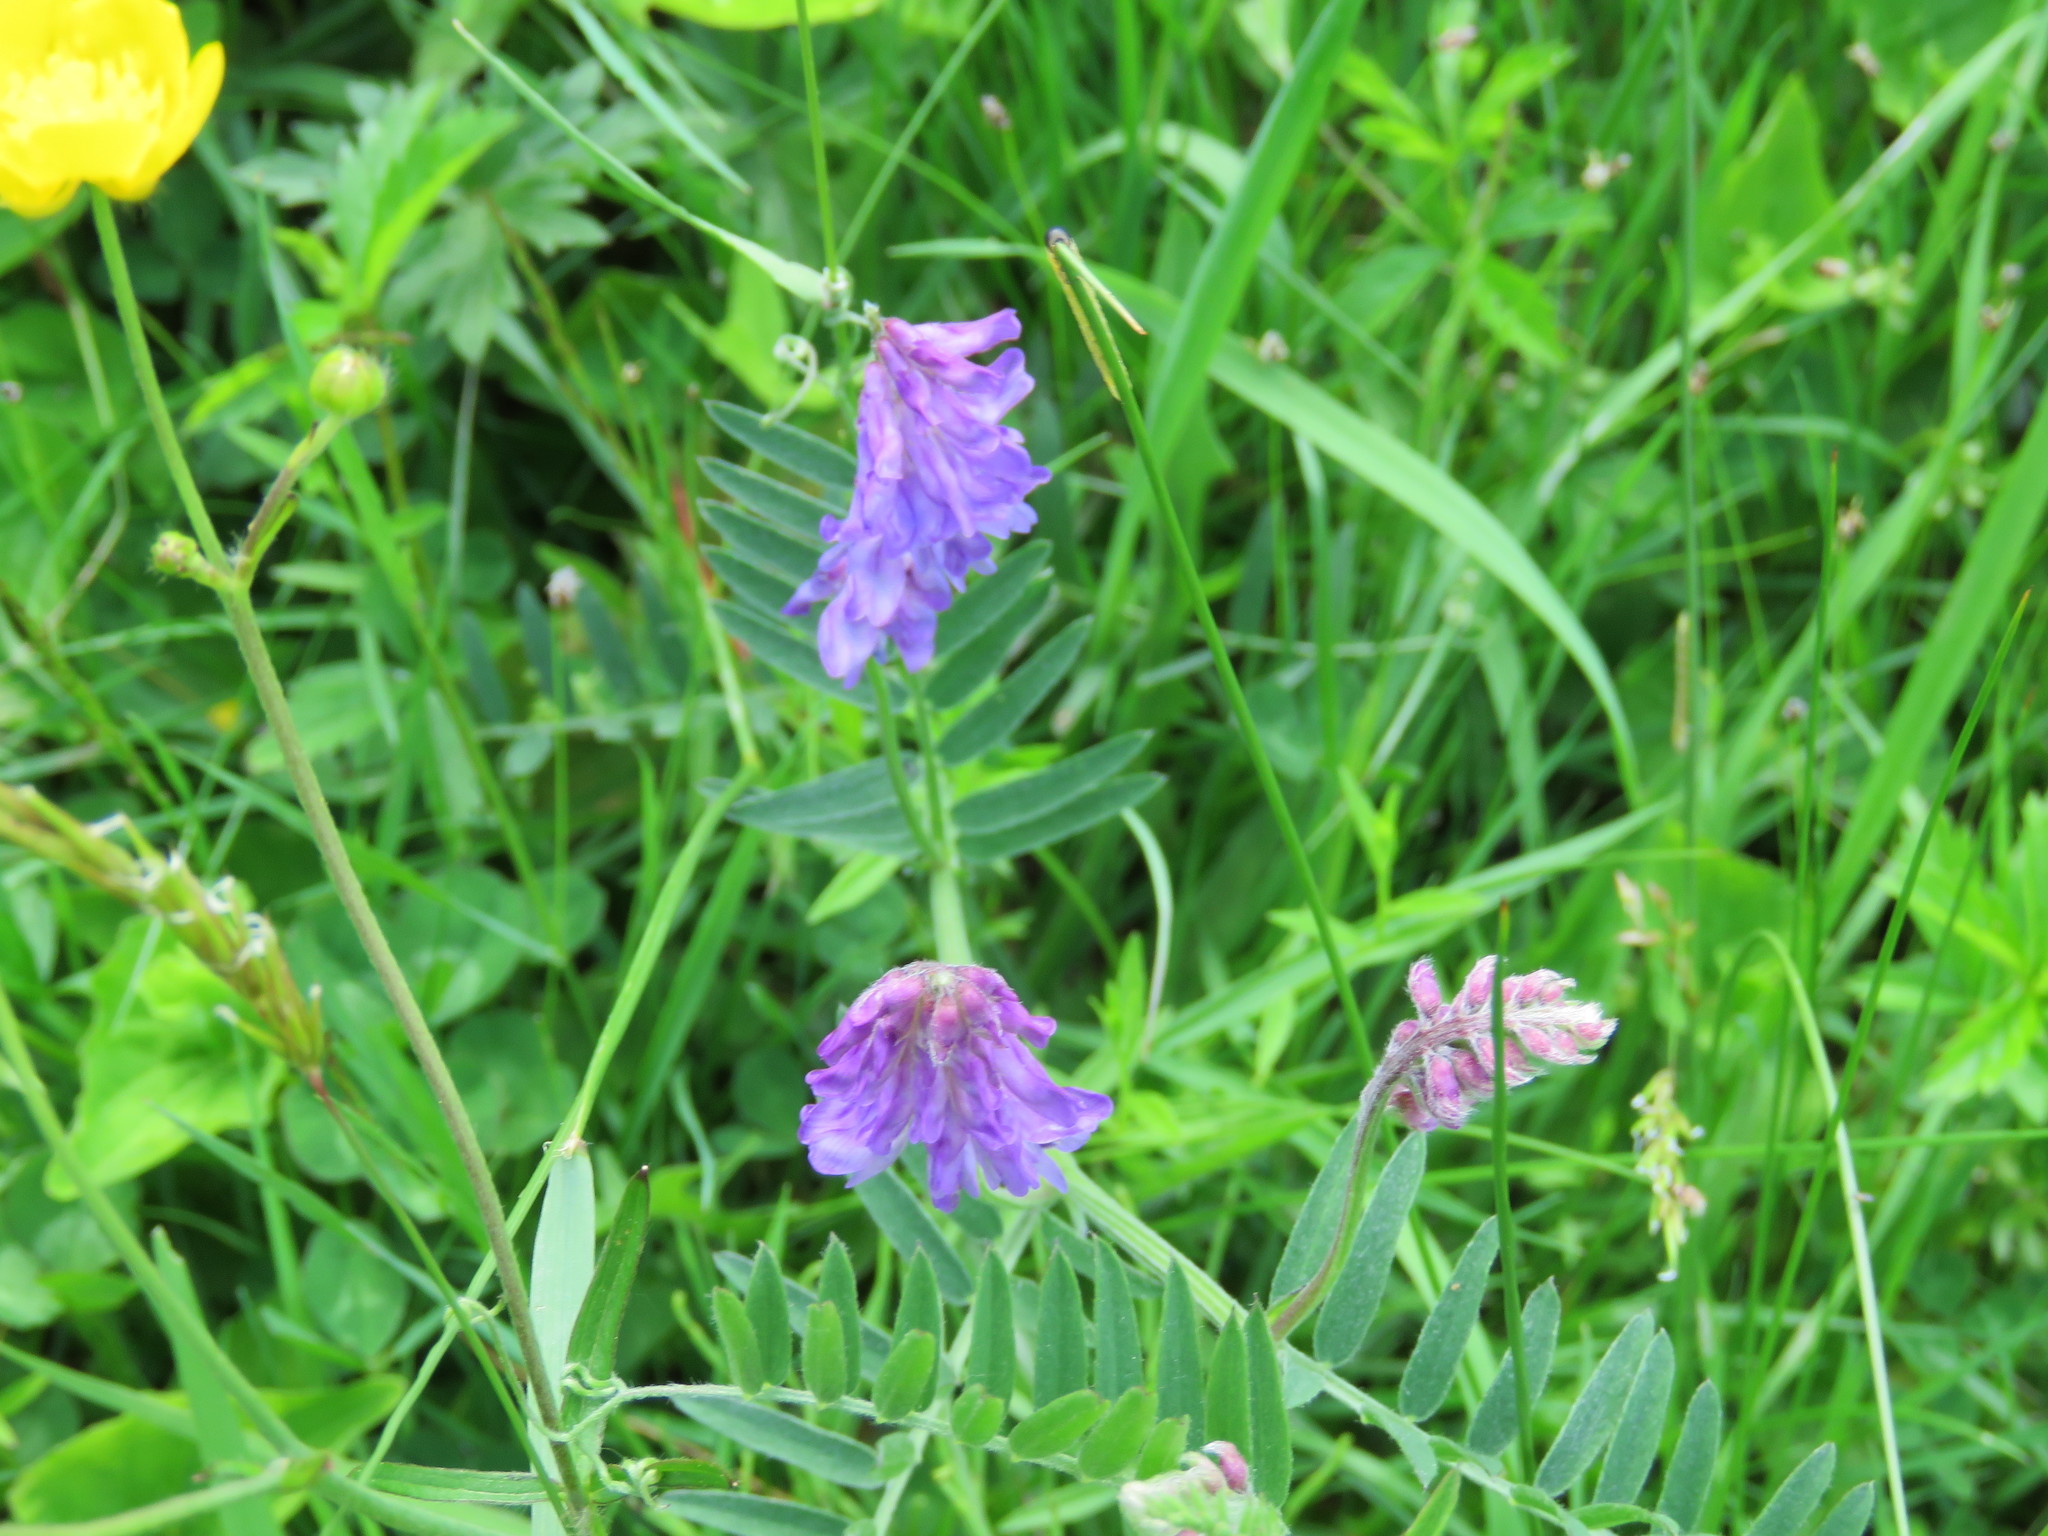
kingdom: Plantae
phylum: Tracheophyta
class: Magnoliopsida
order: Fabales
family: Fabaceae
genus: Vicia
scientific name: Vicia cracca
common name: Bird vetch
